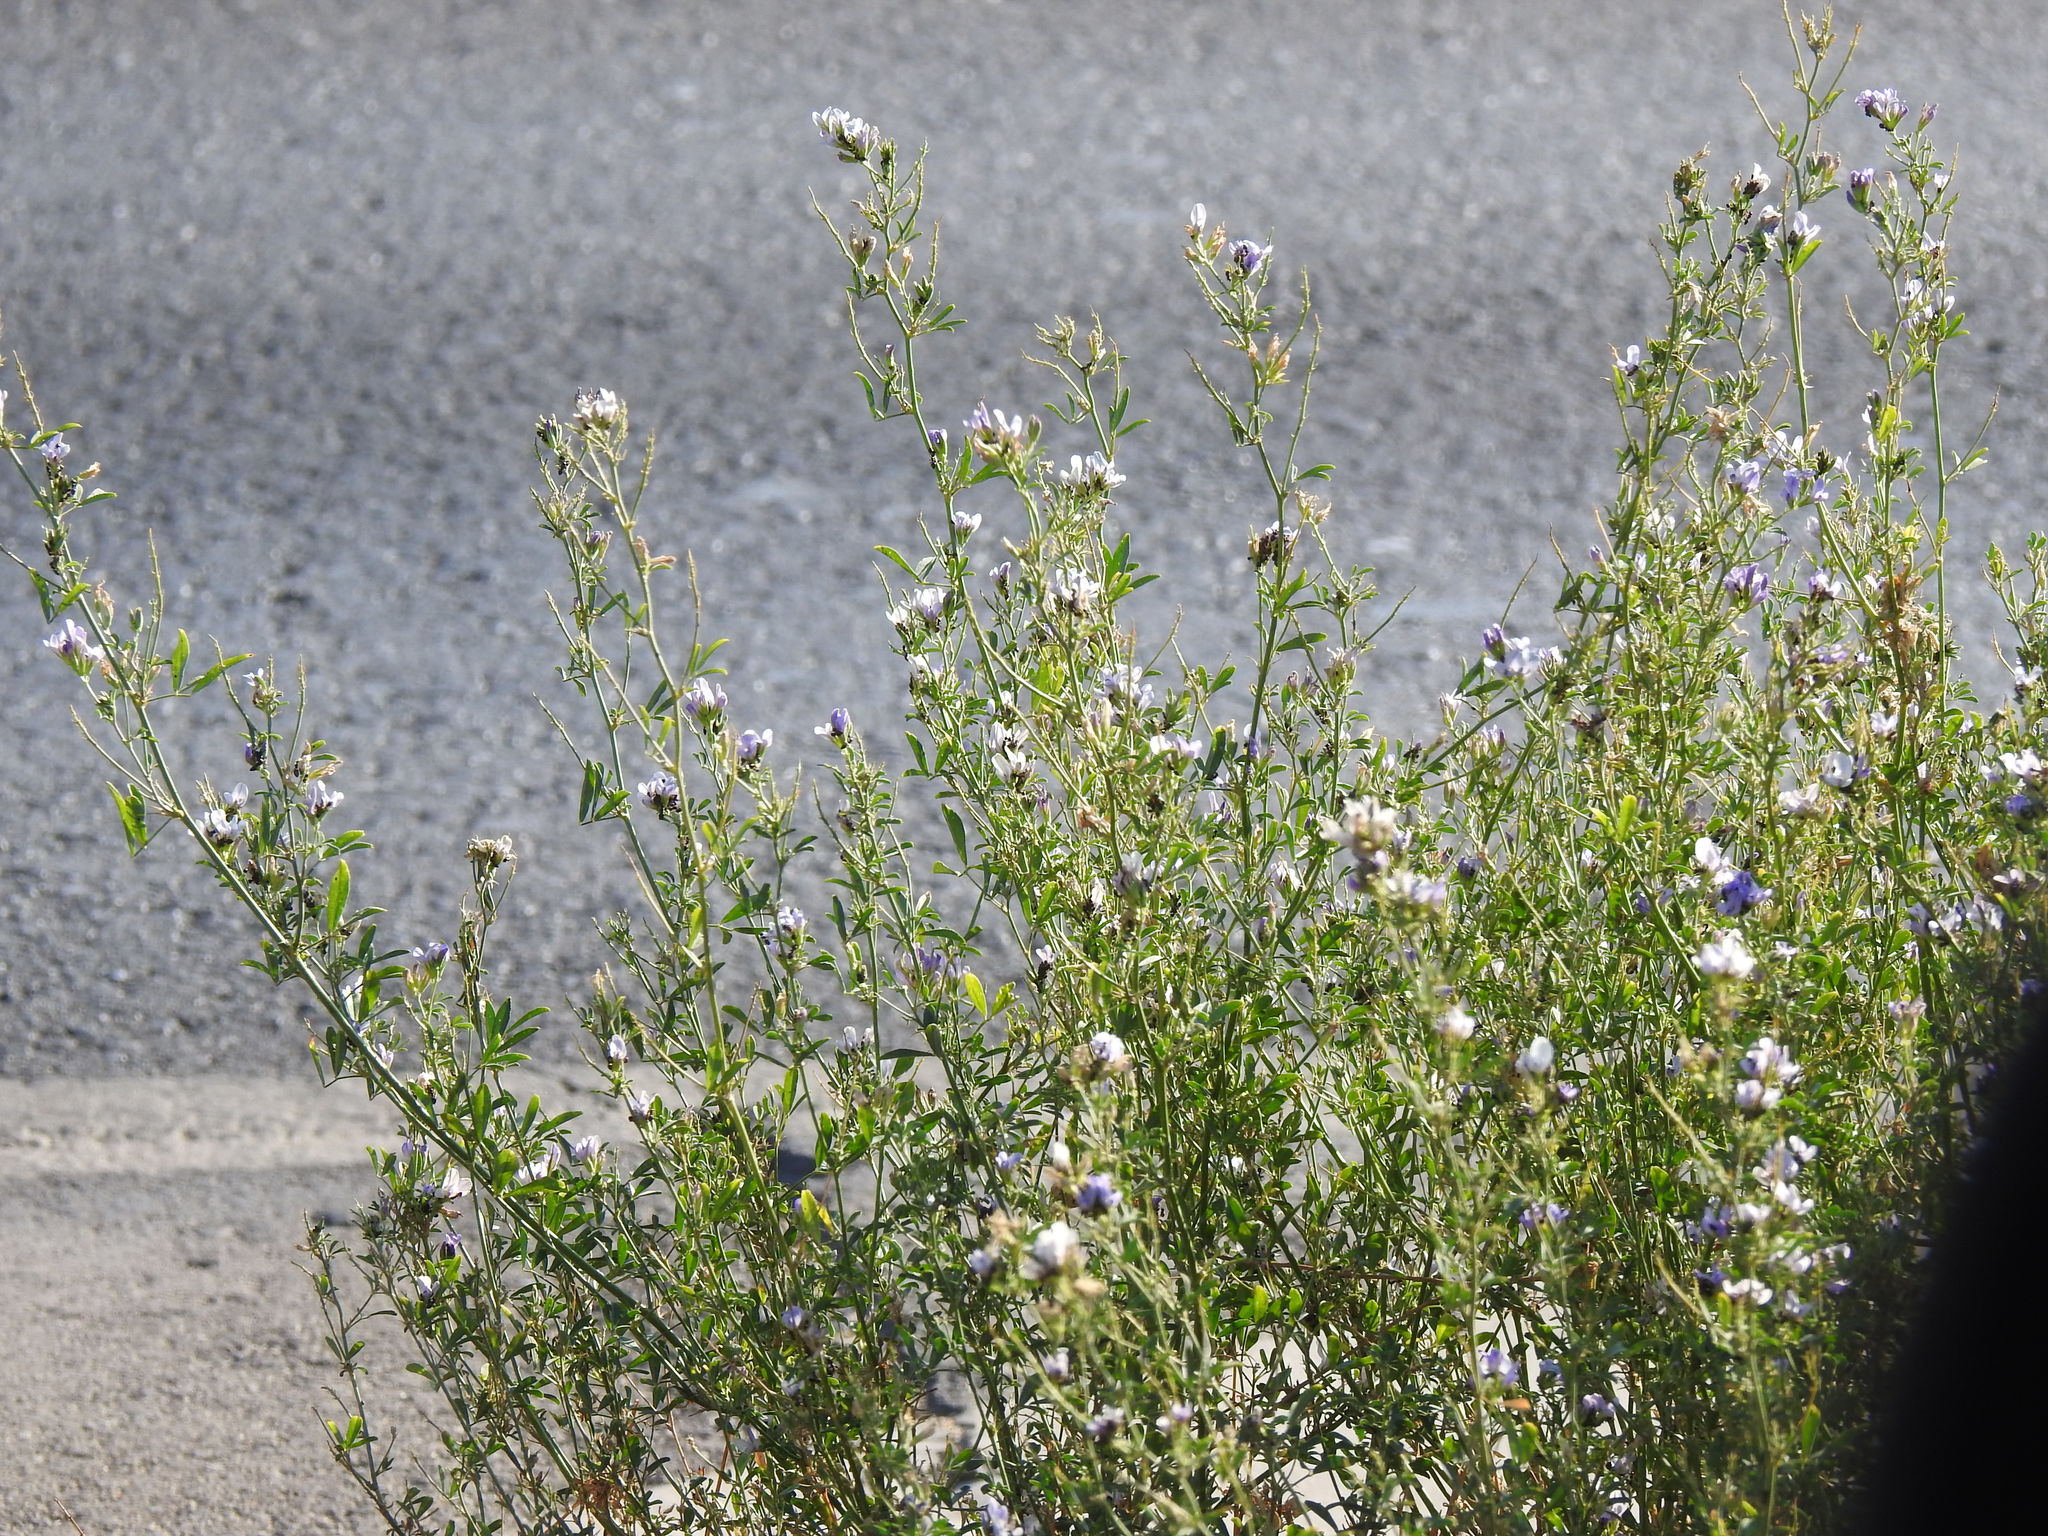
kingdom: Plantae
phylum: Tracheophyta
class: Magnoliopsida
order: Fabales
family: Fabaceae
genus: Medicago
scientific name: Medicago sativa
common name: Alfalfa
